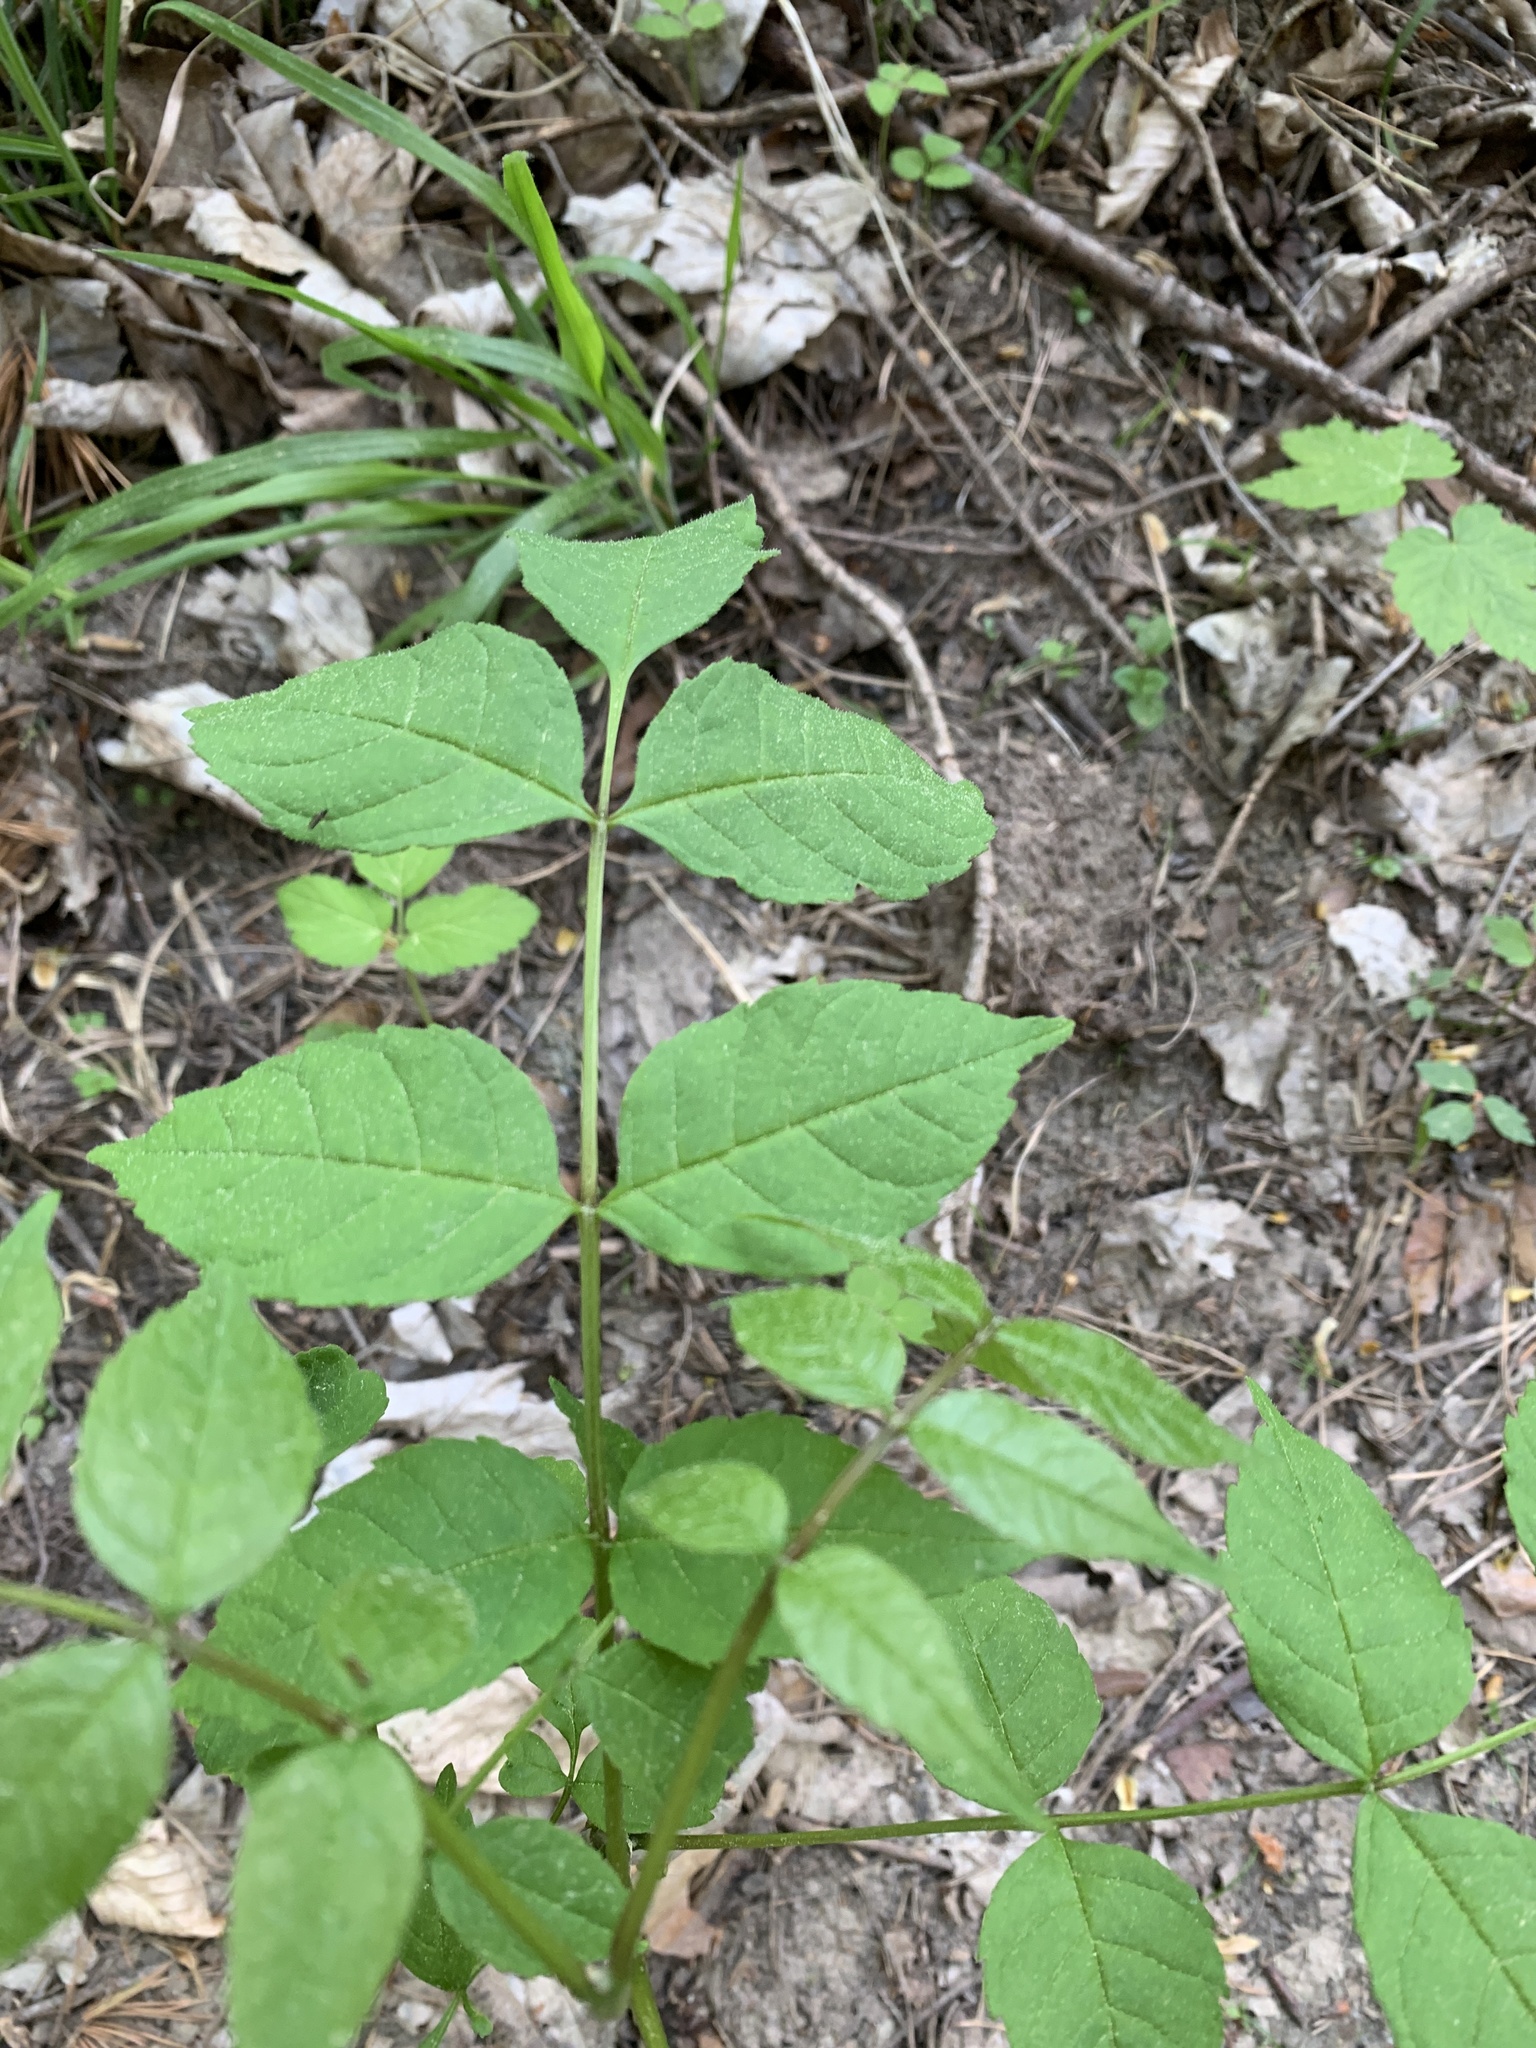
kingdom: Plantae
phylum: Tracheophyta
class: Magnoliopsida
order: Lamiales
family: Oleaceae
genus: Fraxinus
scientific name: Fraxinus excelsior
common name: European ash
